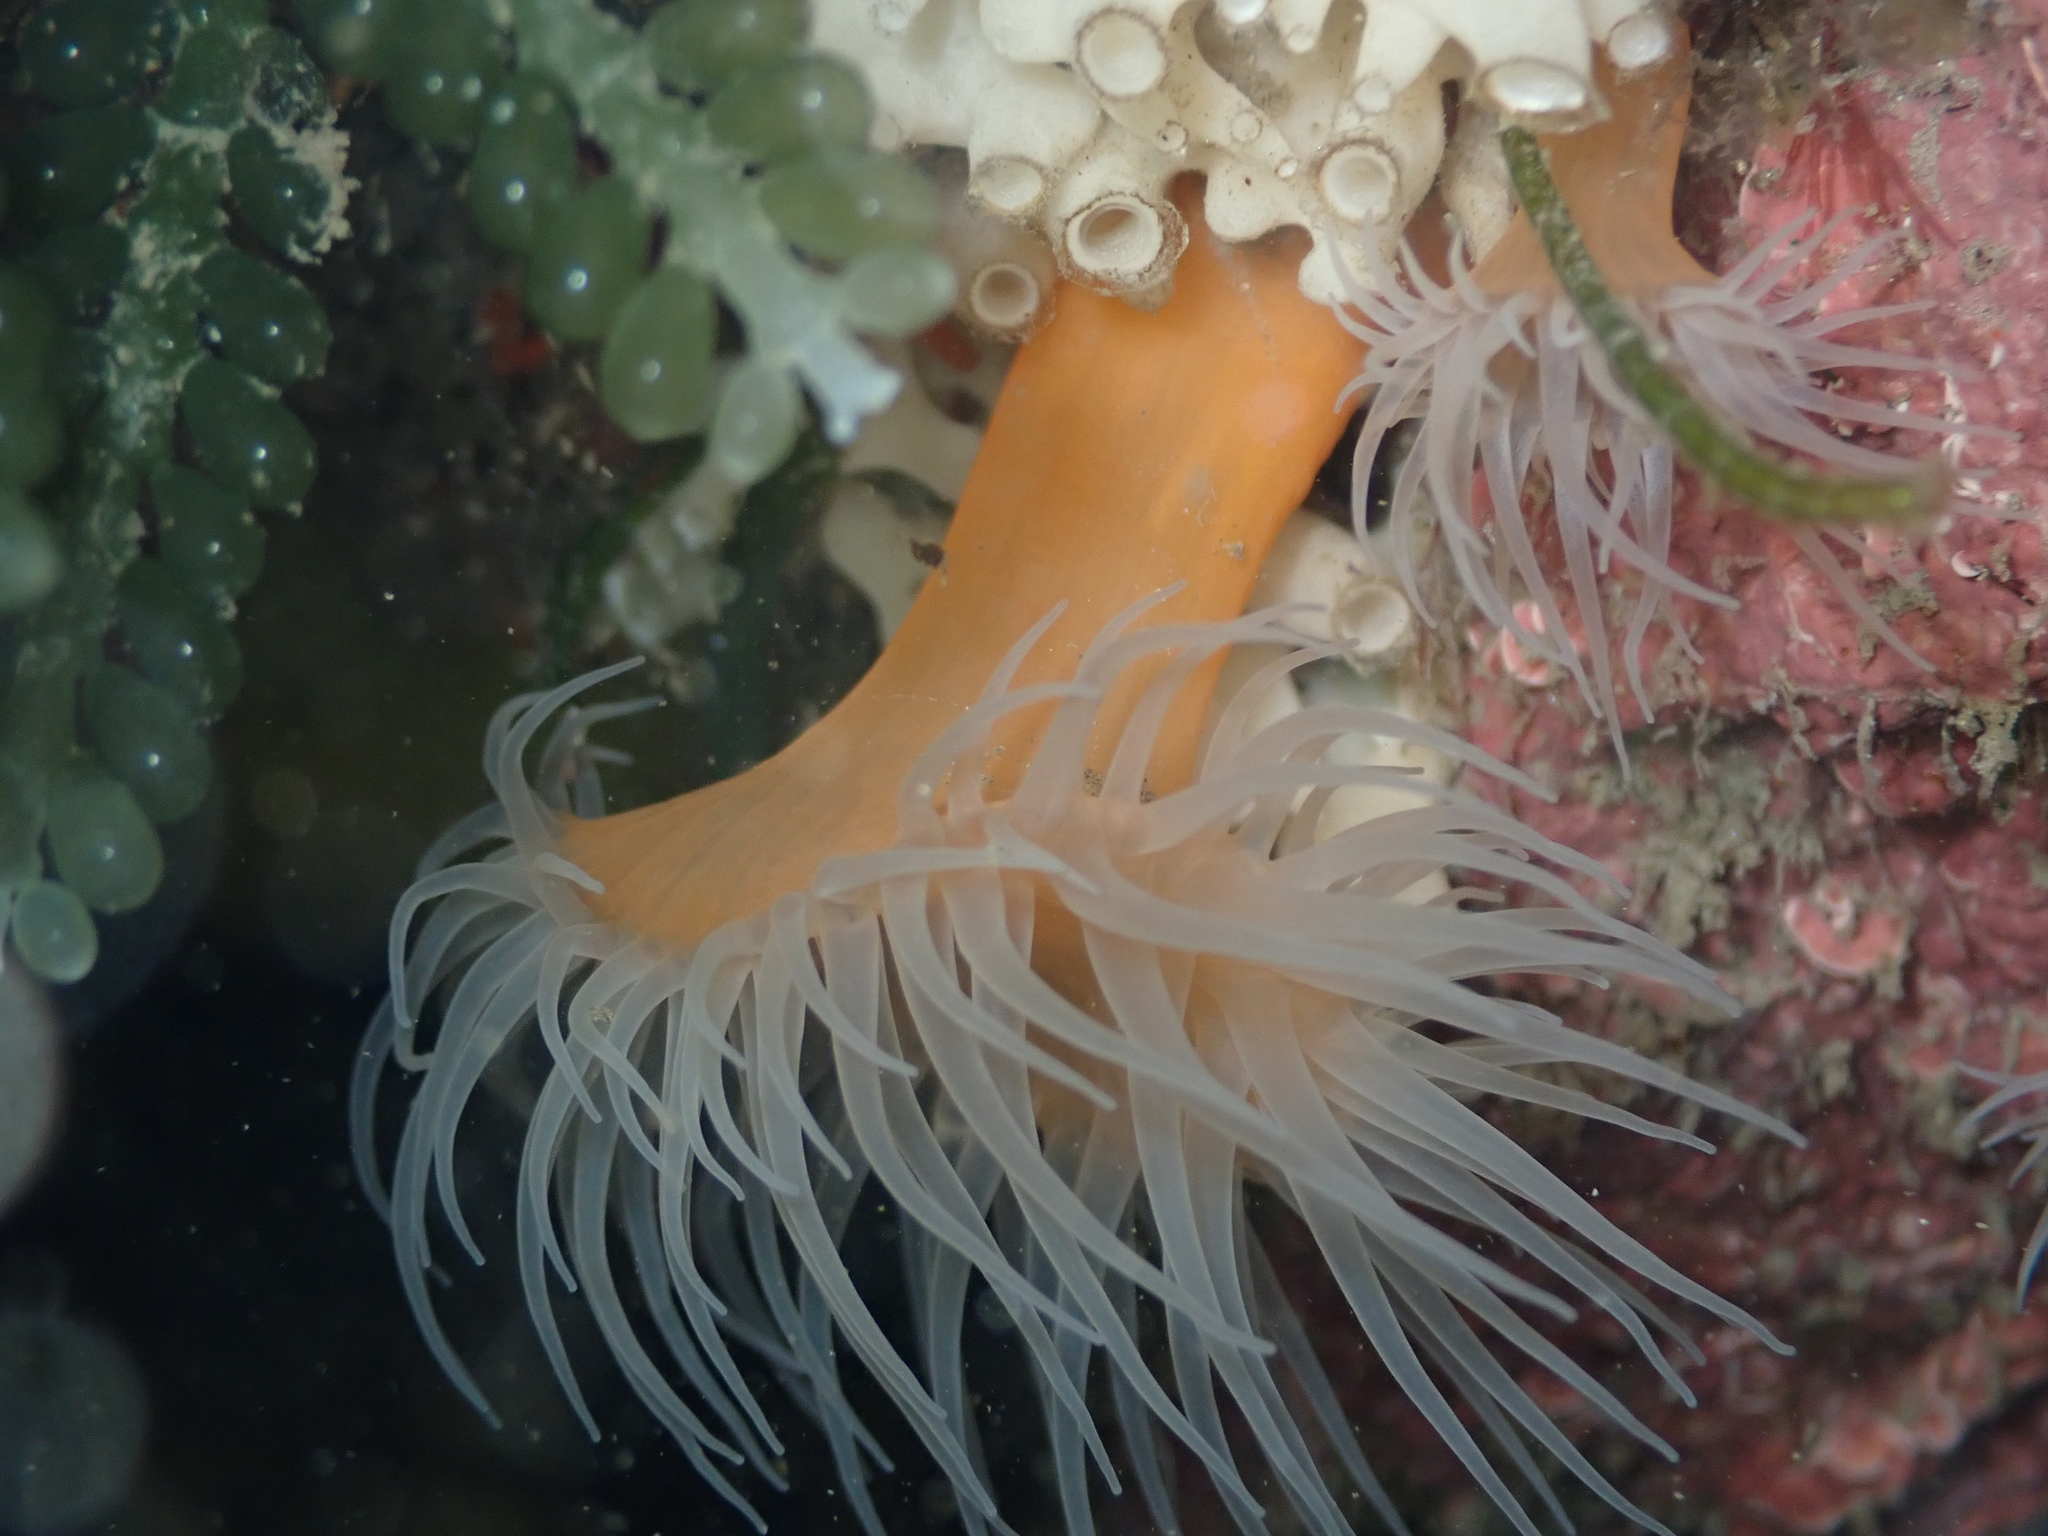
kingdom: Animalia
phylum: Cnidaria
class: Anthozoa
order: Actiniaria
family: Sagartiidae
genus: Habrosanthus
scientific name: Habrosanthus bathamae
